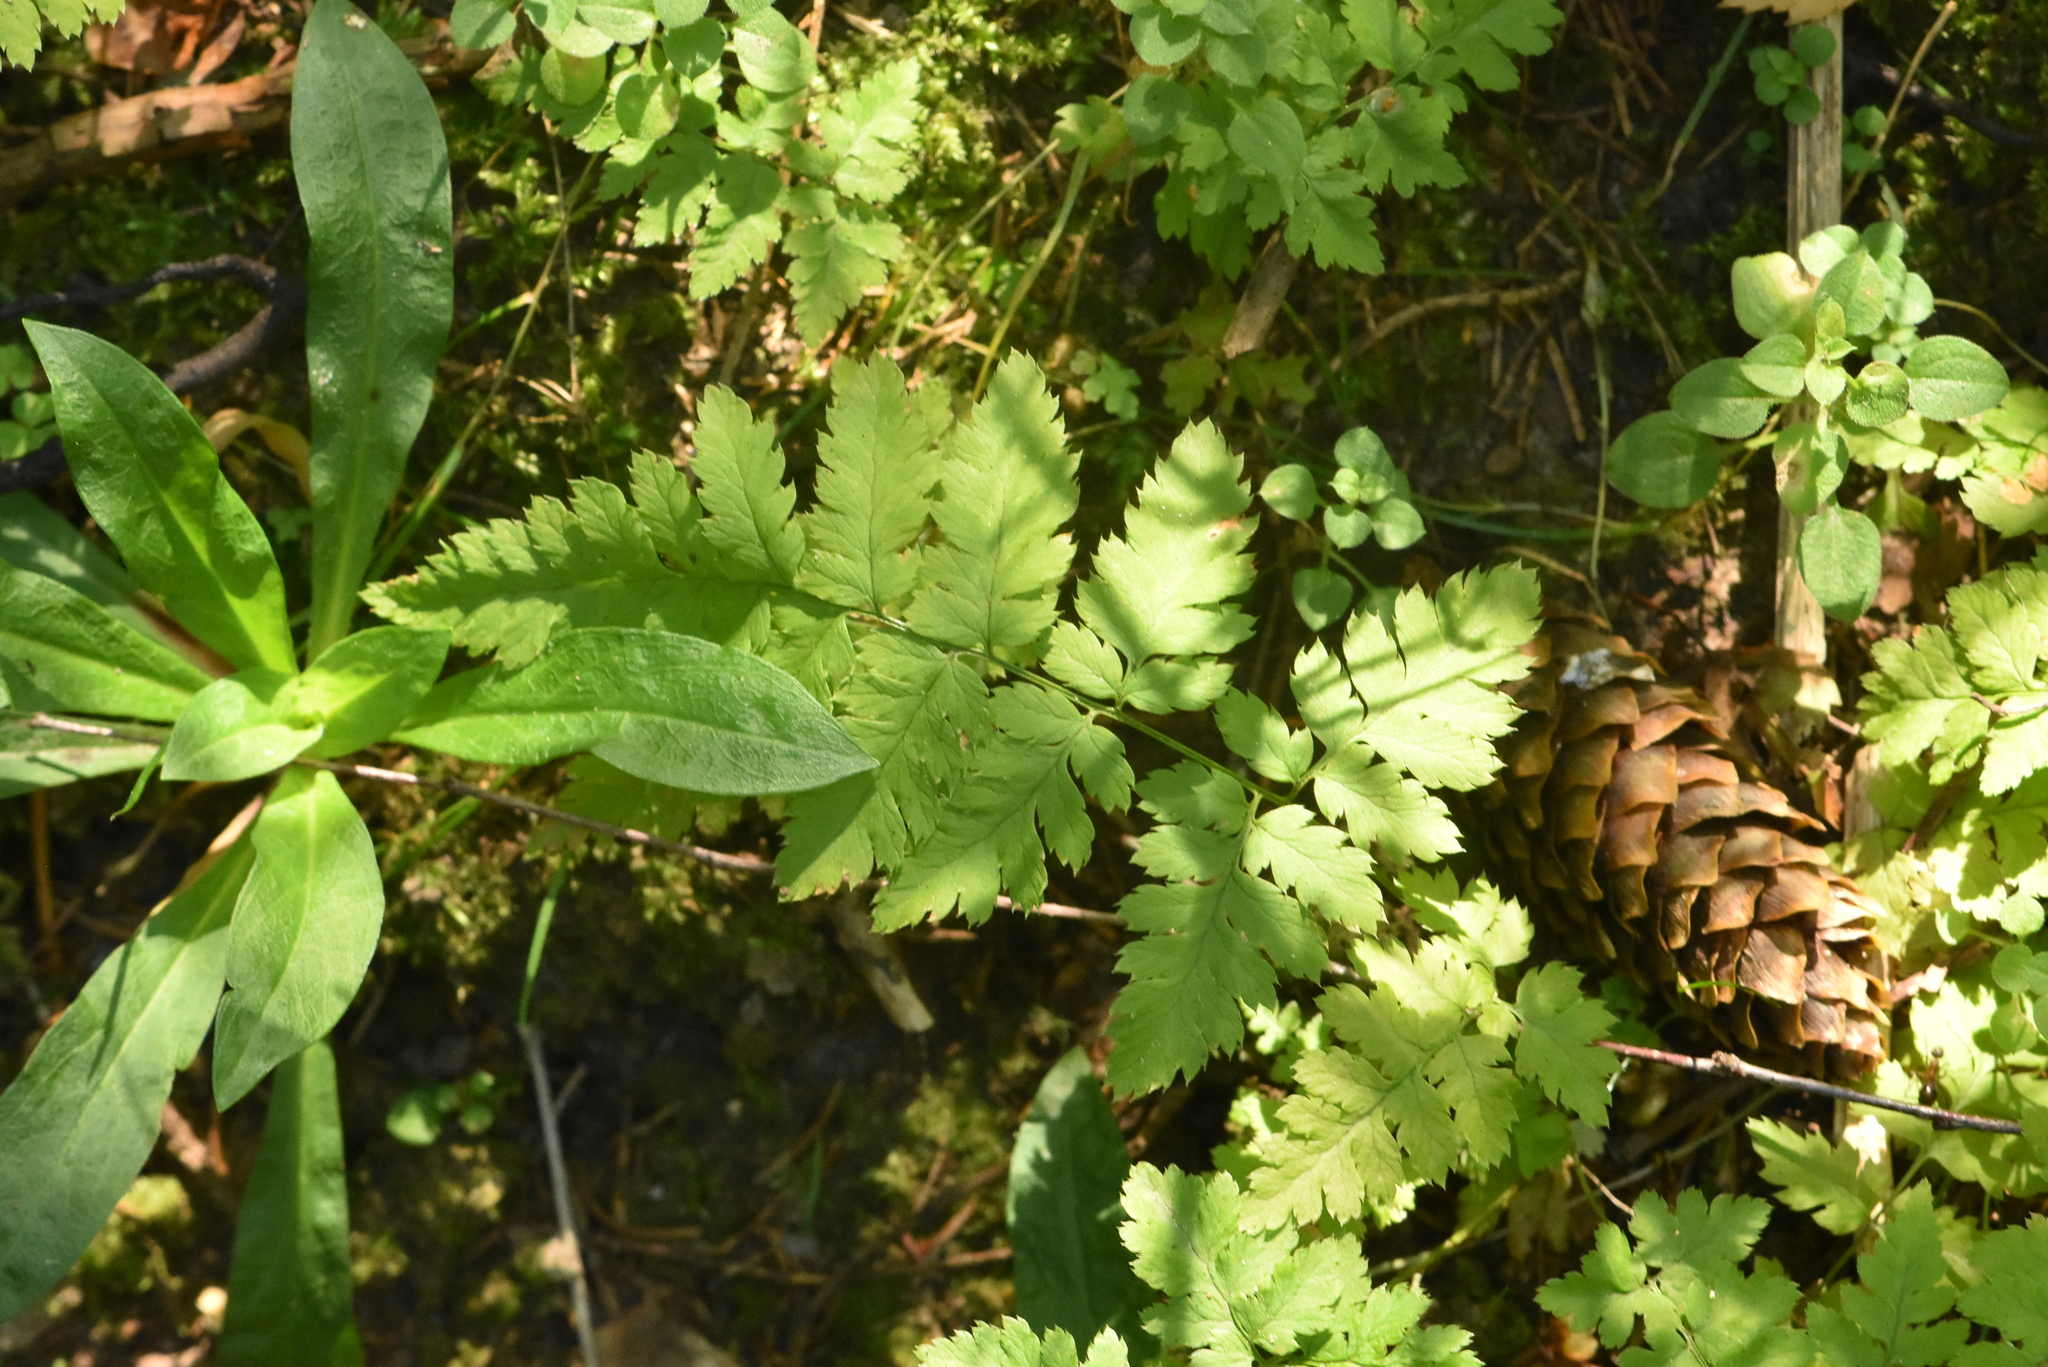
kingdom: Plantae
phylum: Tracheophyta
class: Polypodiopsida
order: Polypodiales
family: Dryopteridaceae
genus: Dryopteris
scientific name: Dryopteris carthusiana
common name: Narrow buckler-fern
